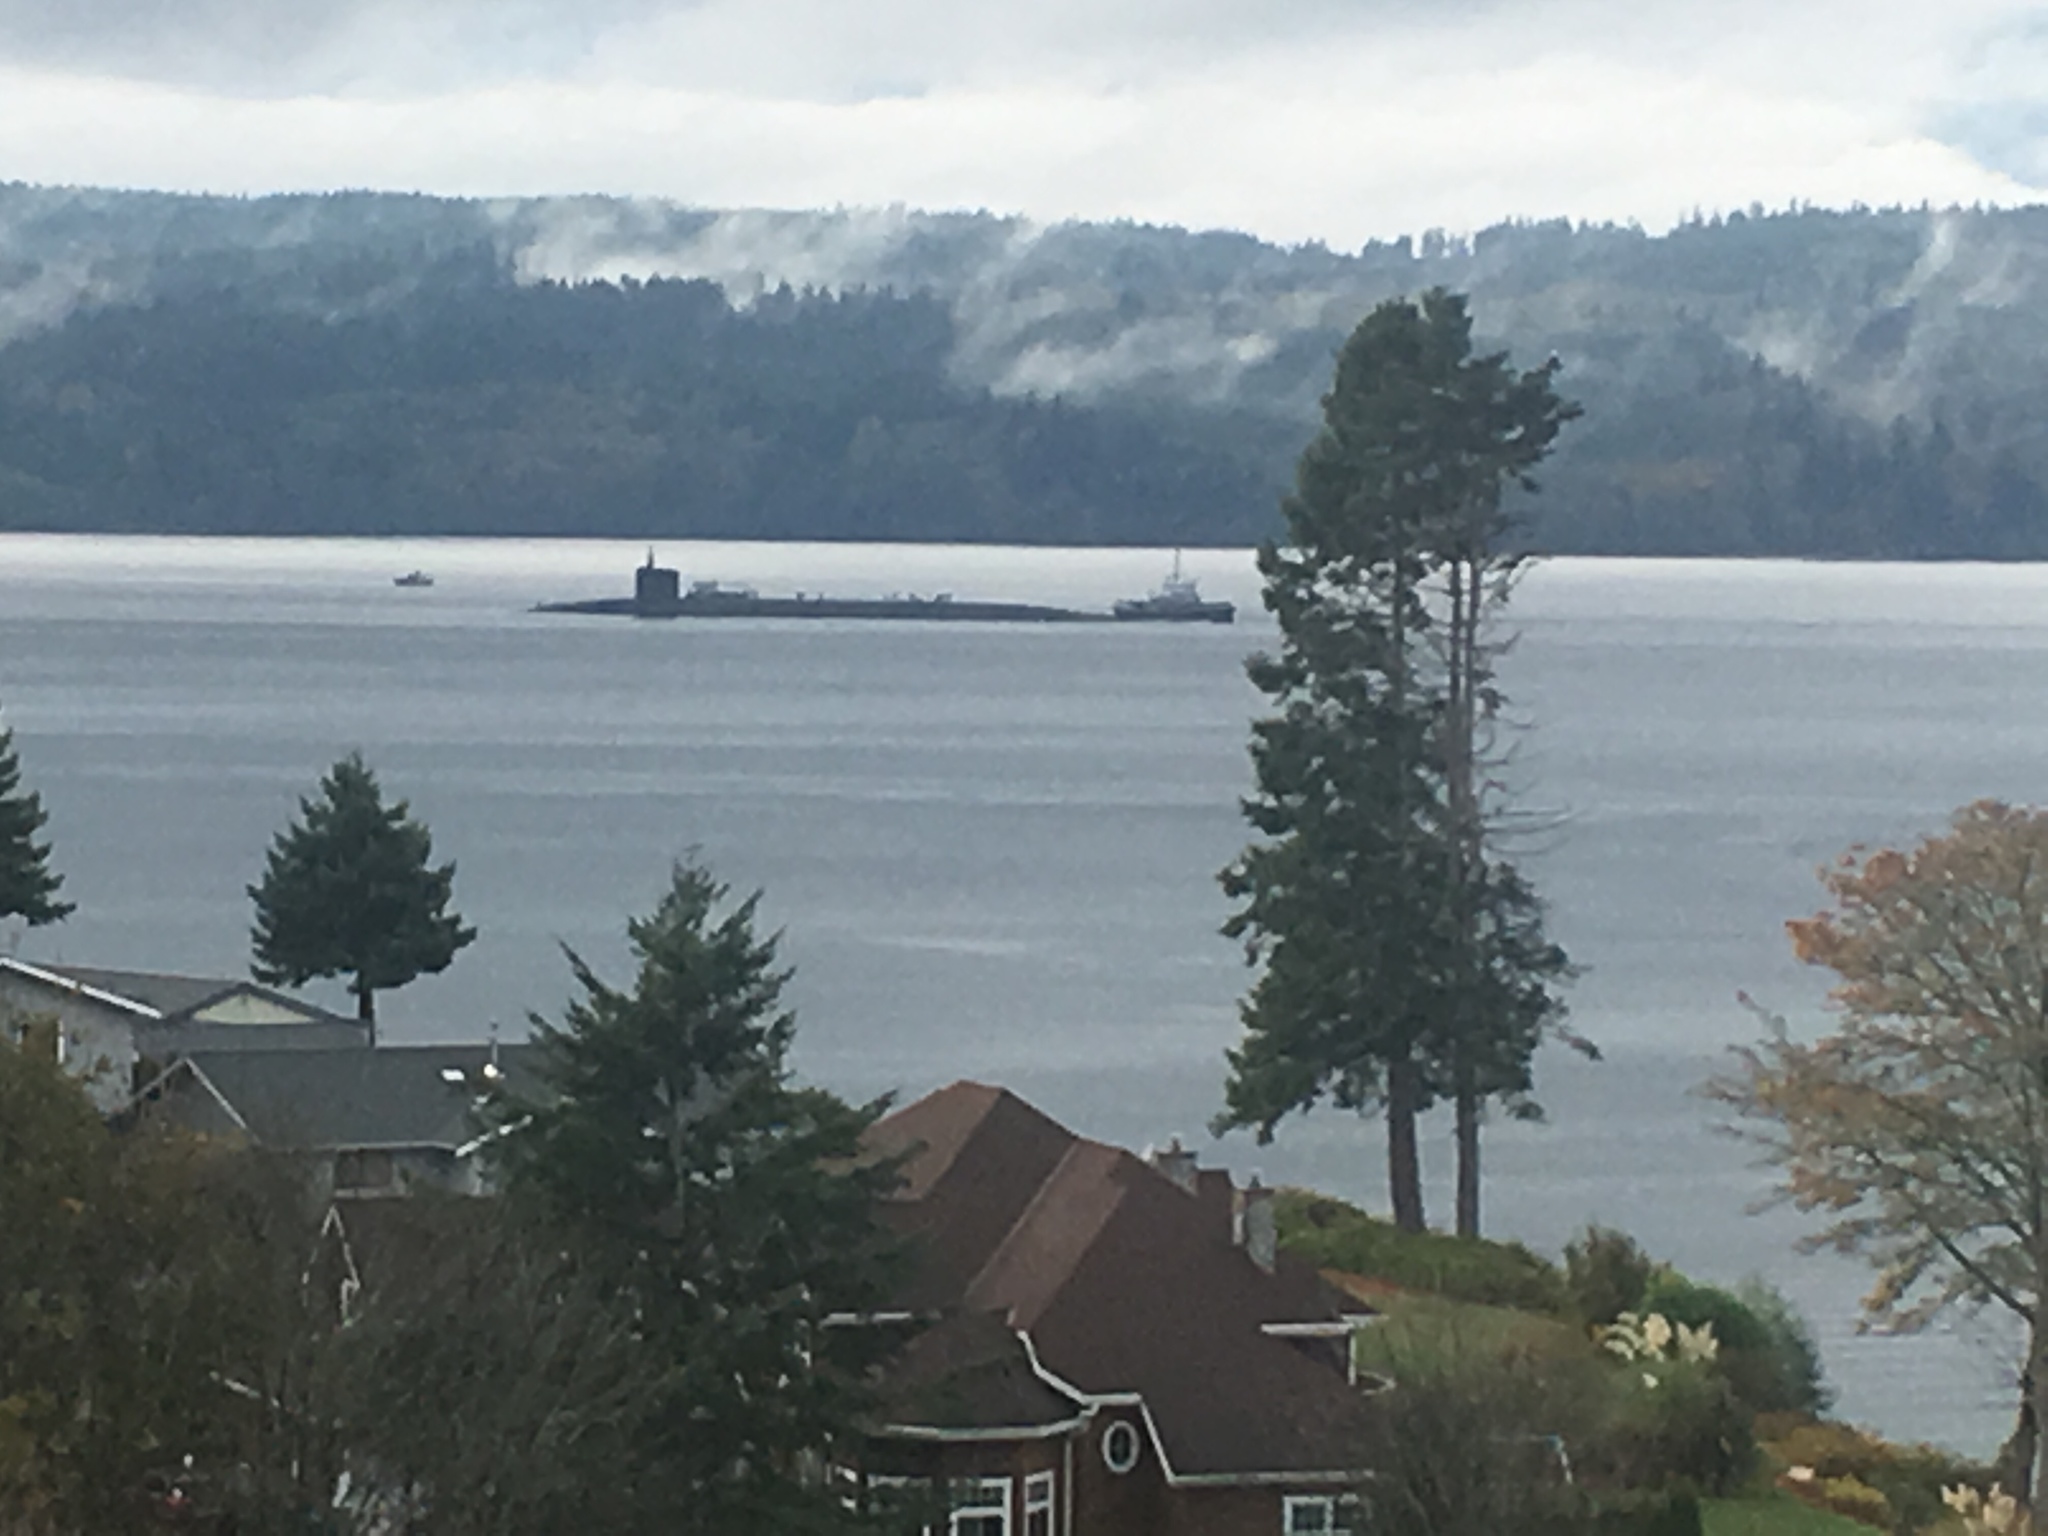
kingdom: Animalia
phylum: Chordata
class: Aves
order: Accipitriformes
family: Accipitridae
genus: Haliaeetus
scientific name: Haliaeetus leucocephalus
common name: Bald eagle
